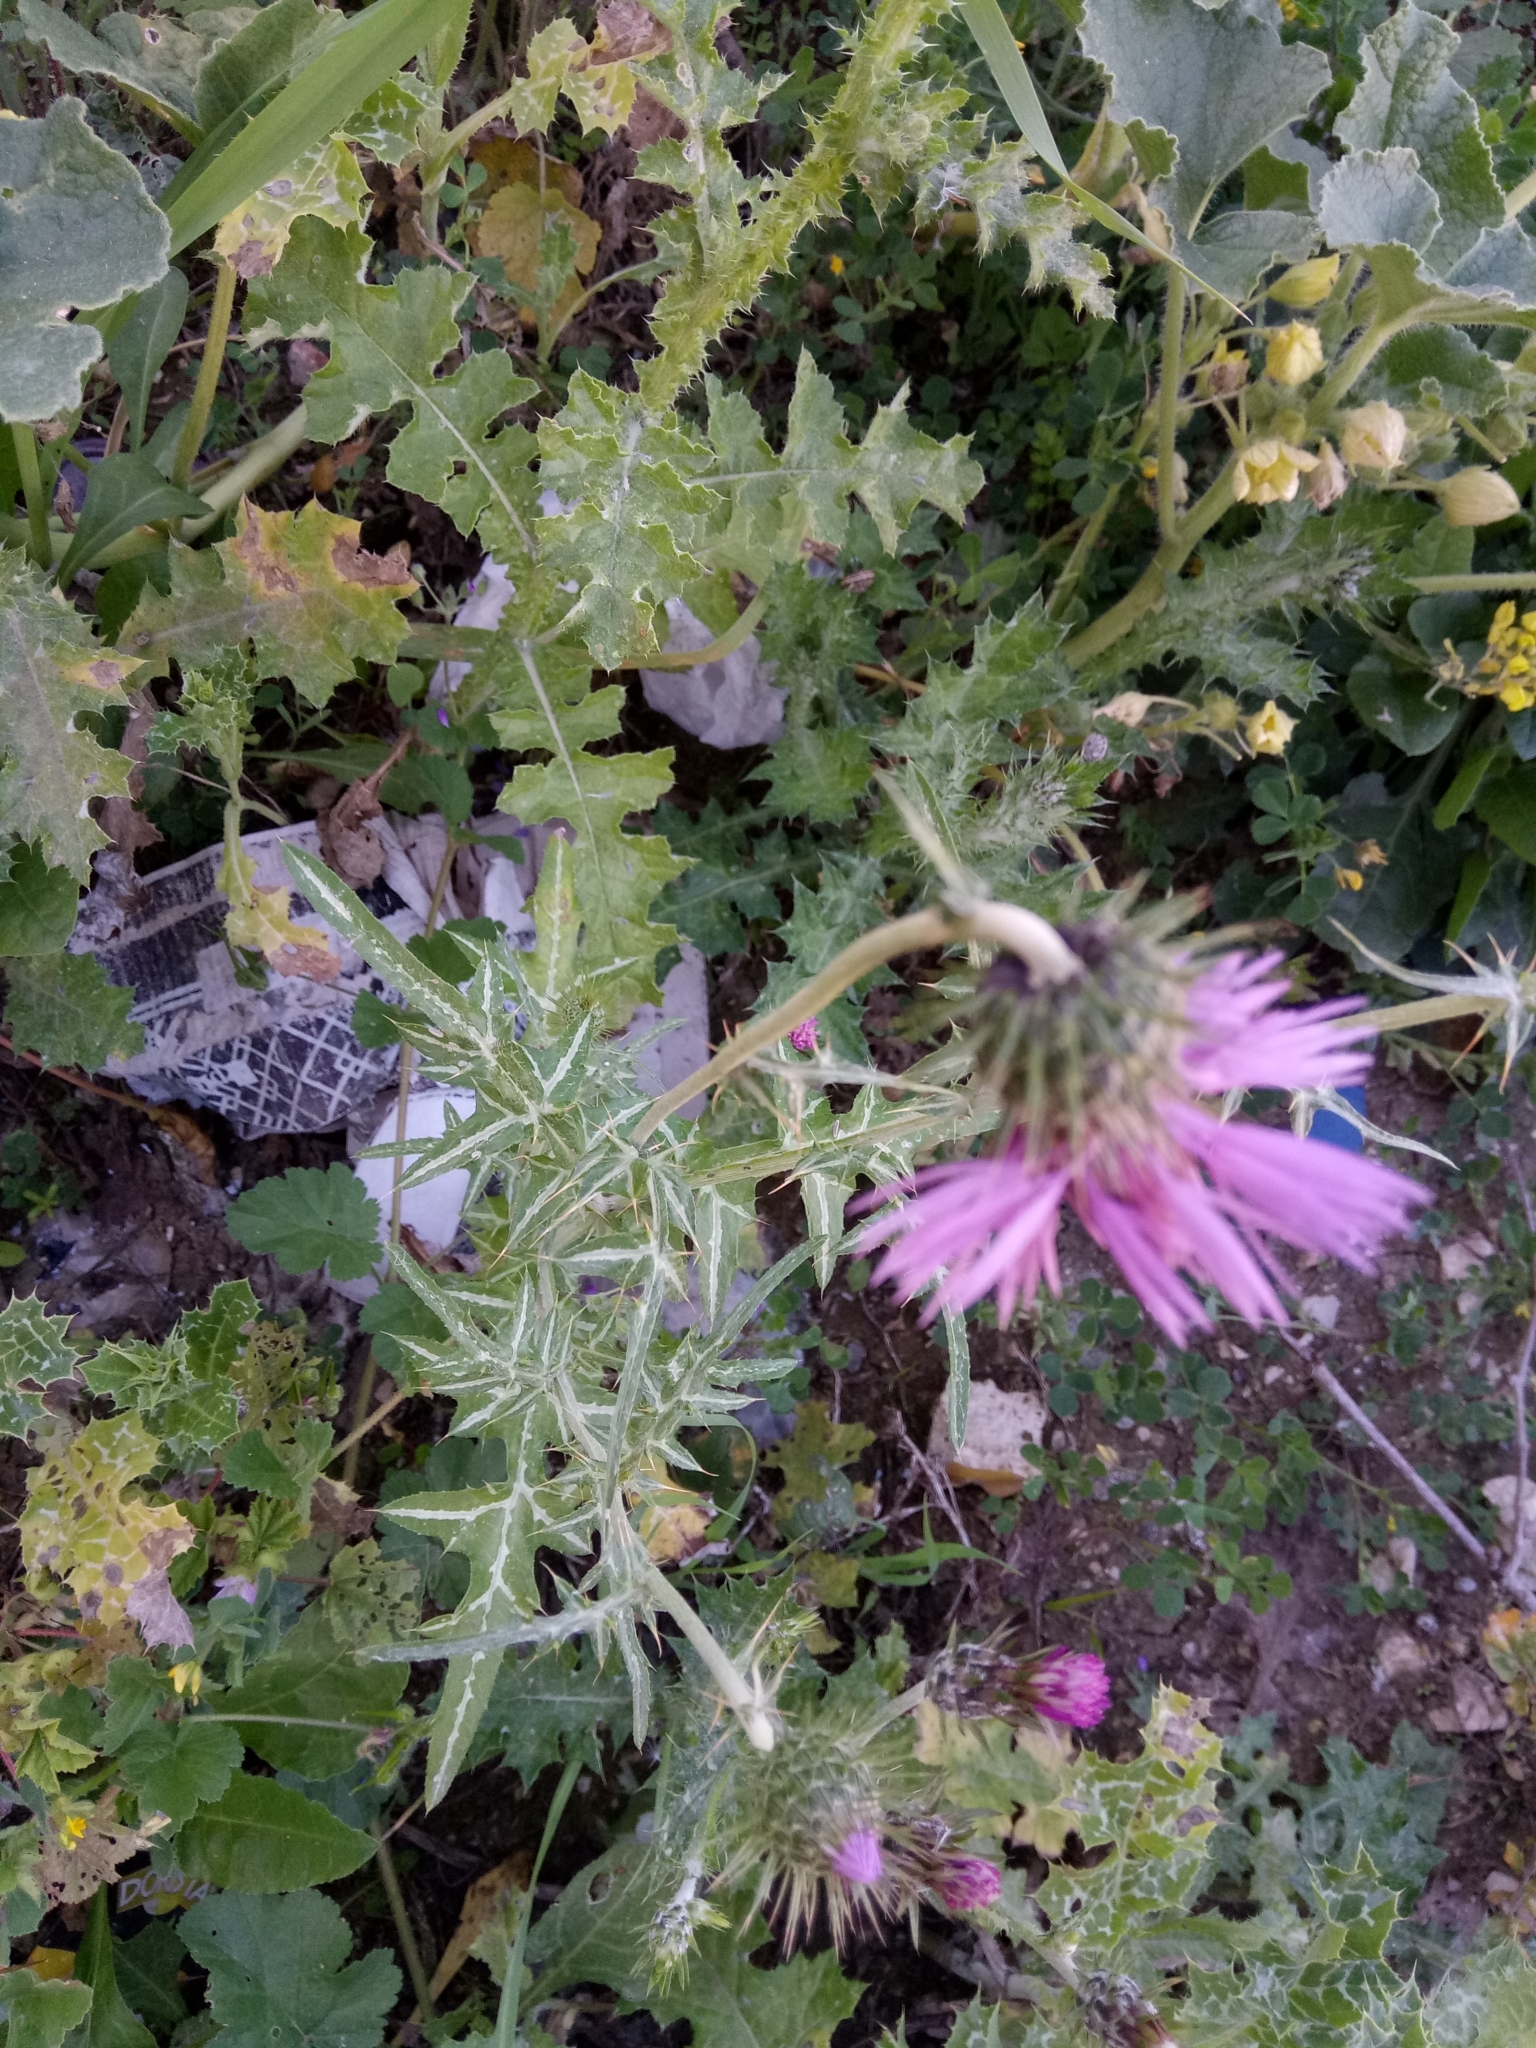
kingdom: Plantae
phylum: Tracheophyta
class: Magnoliopsida
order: Asterales
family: Asteraceae
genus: Galactites
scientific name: Galactites tomentosa
